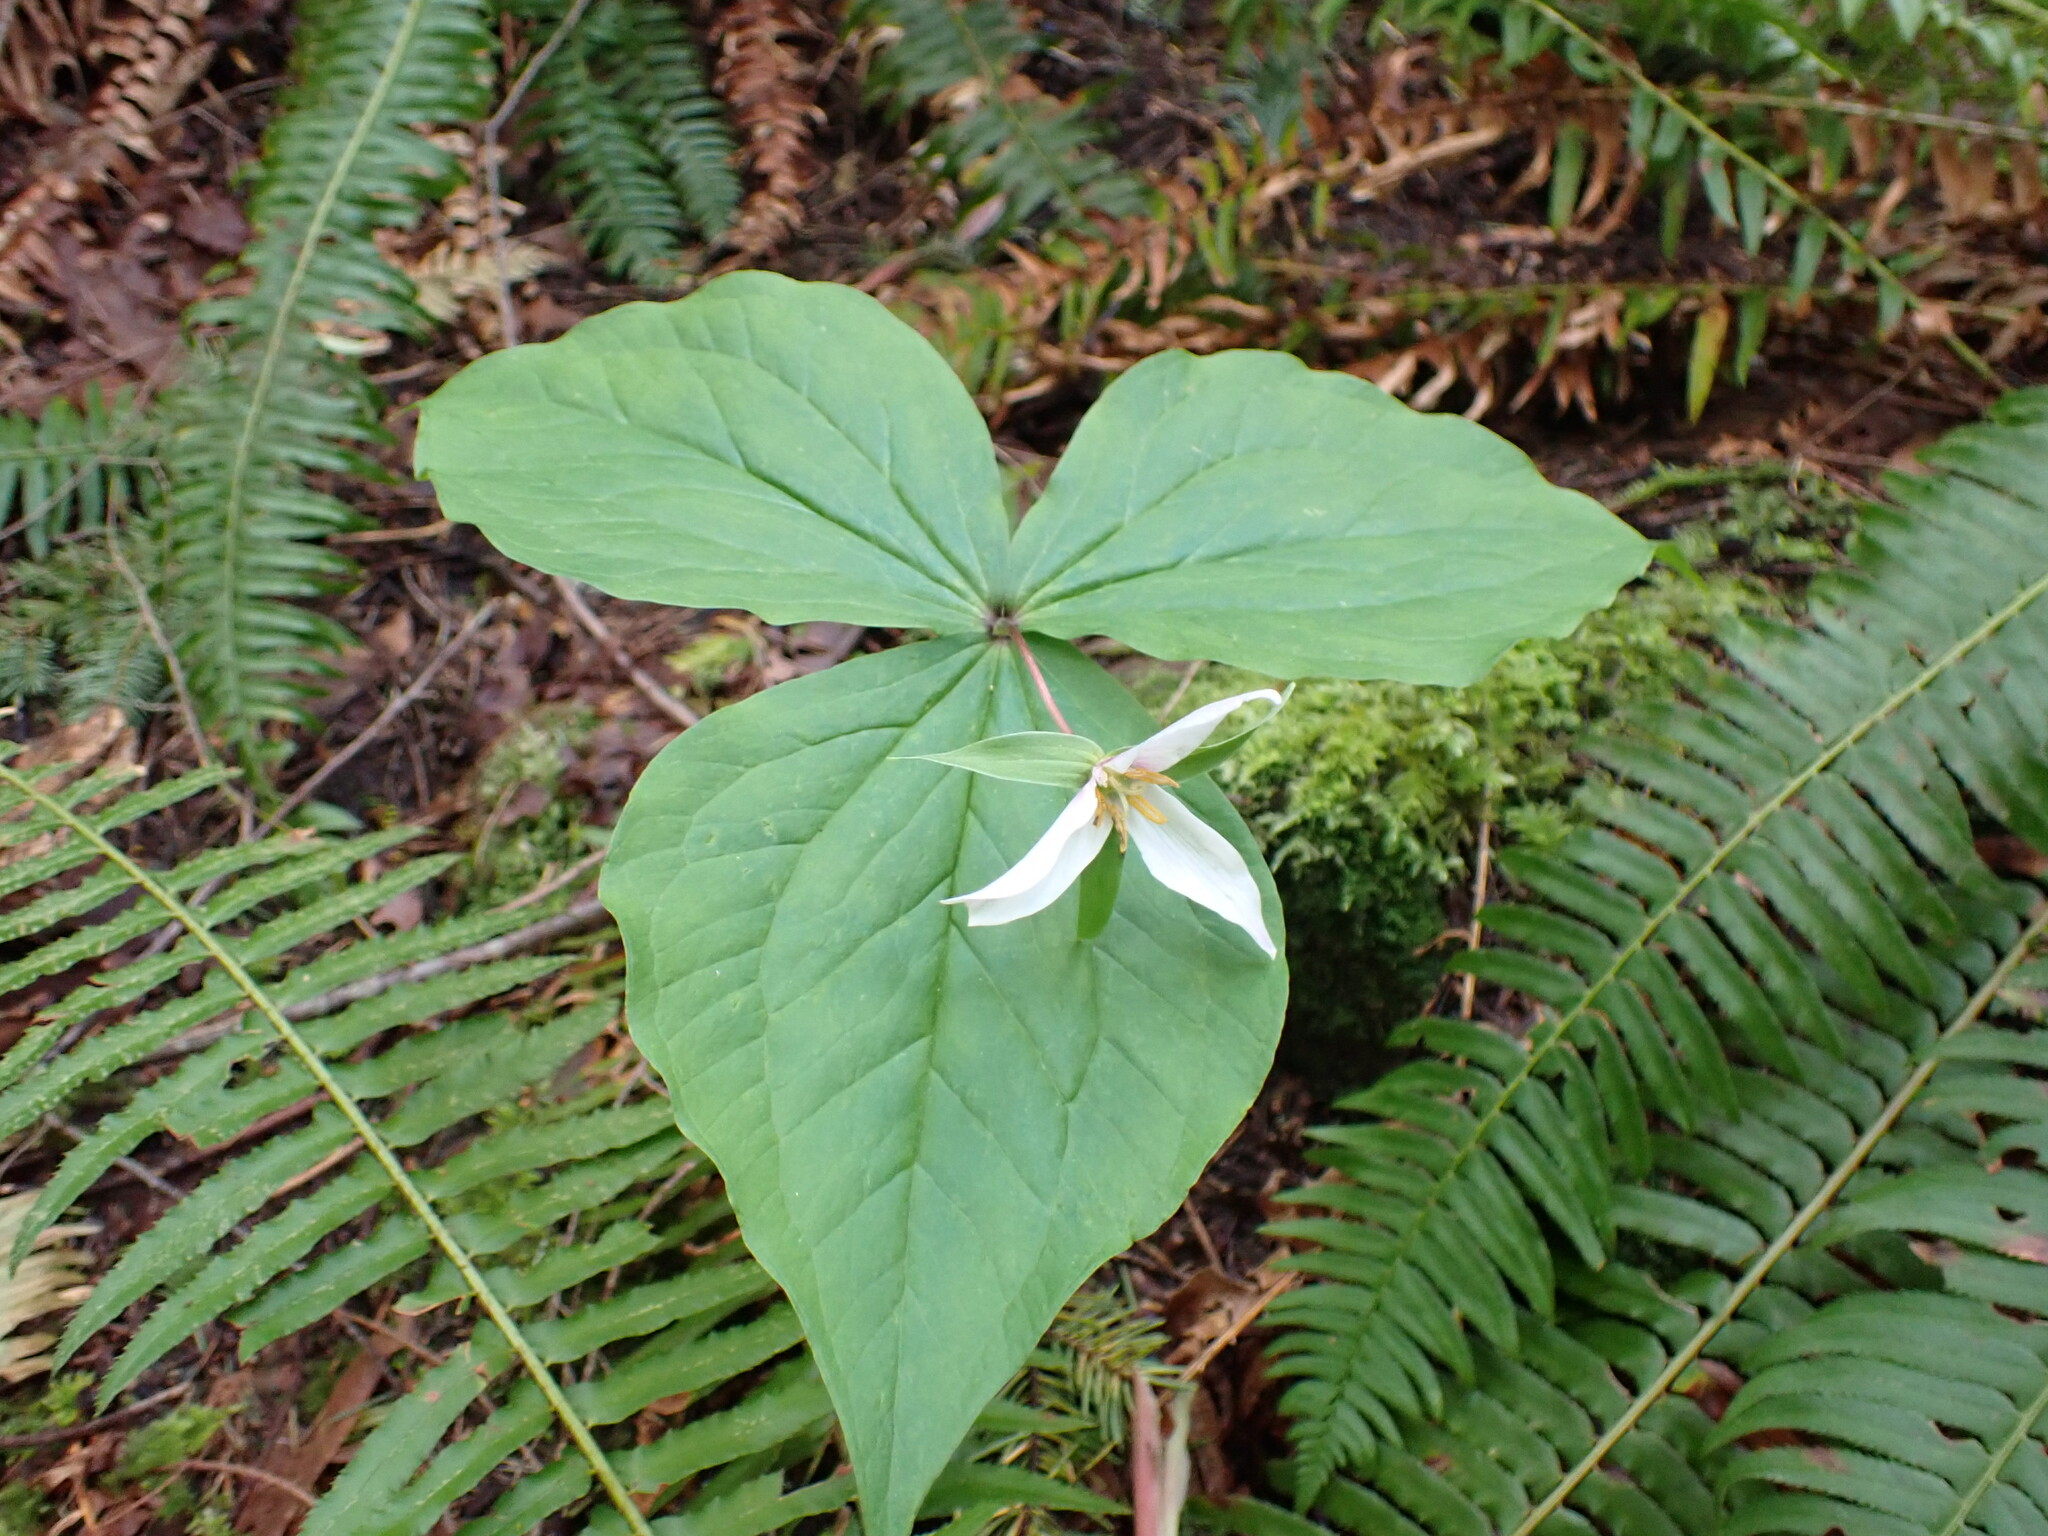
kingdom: Plantae
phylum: Tracheophyta
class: Liliopsida
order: Liliales
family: Melanthiaceae
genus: Trillium
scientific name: Trillium ovatum
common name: Pacific trillium
